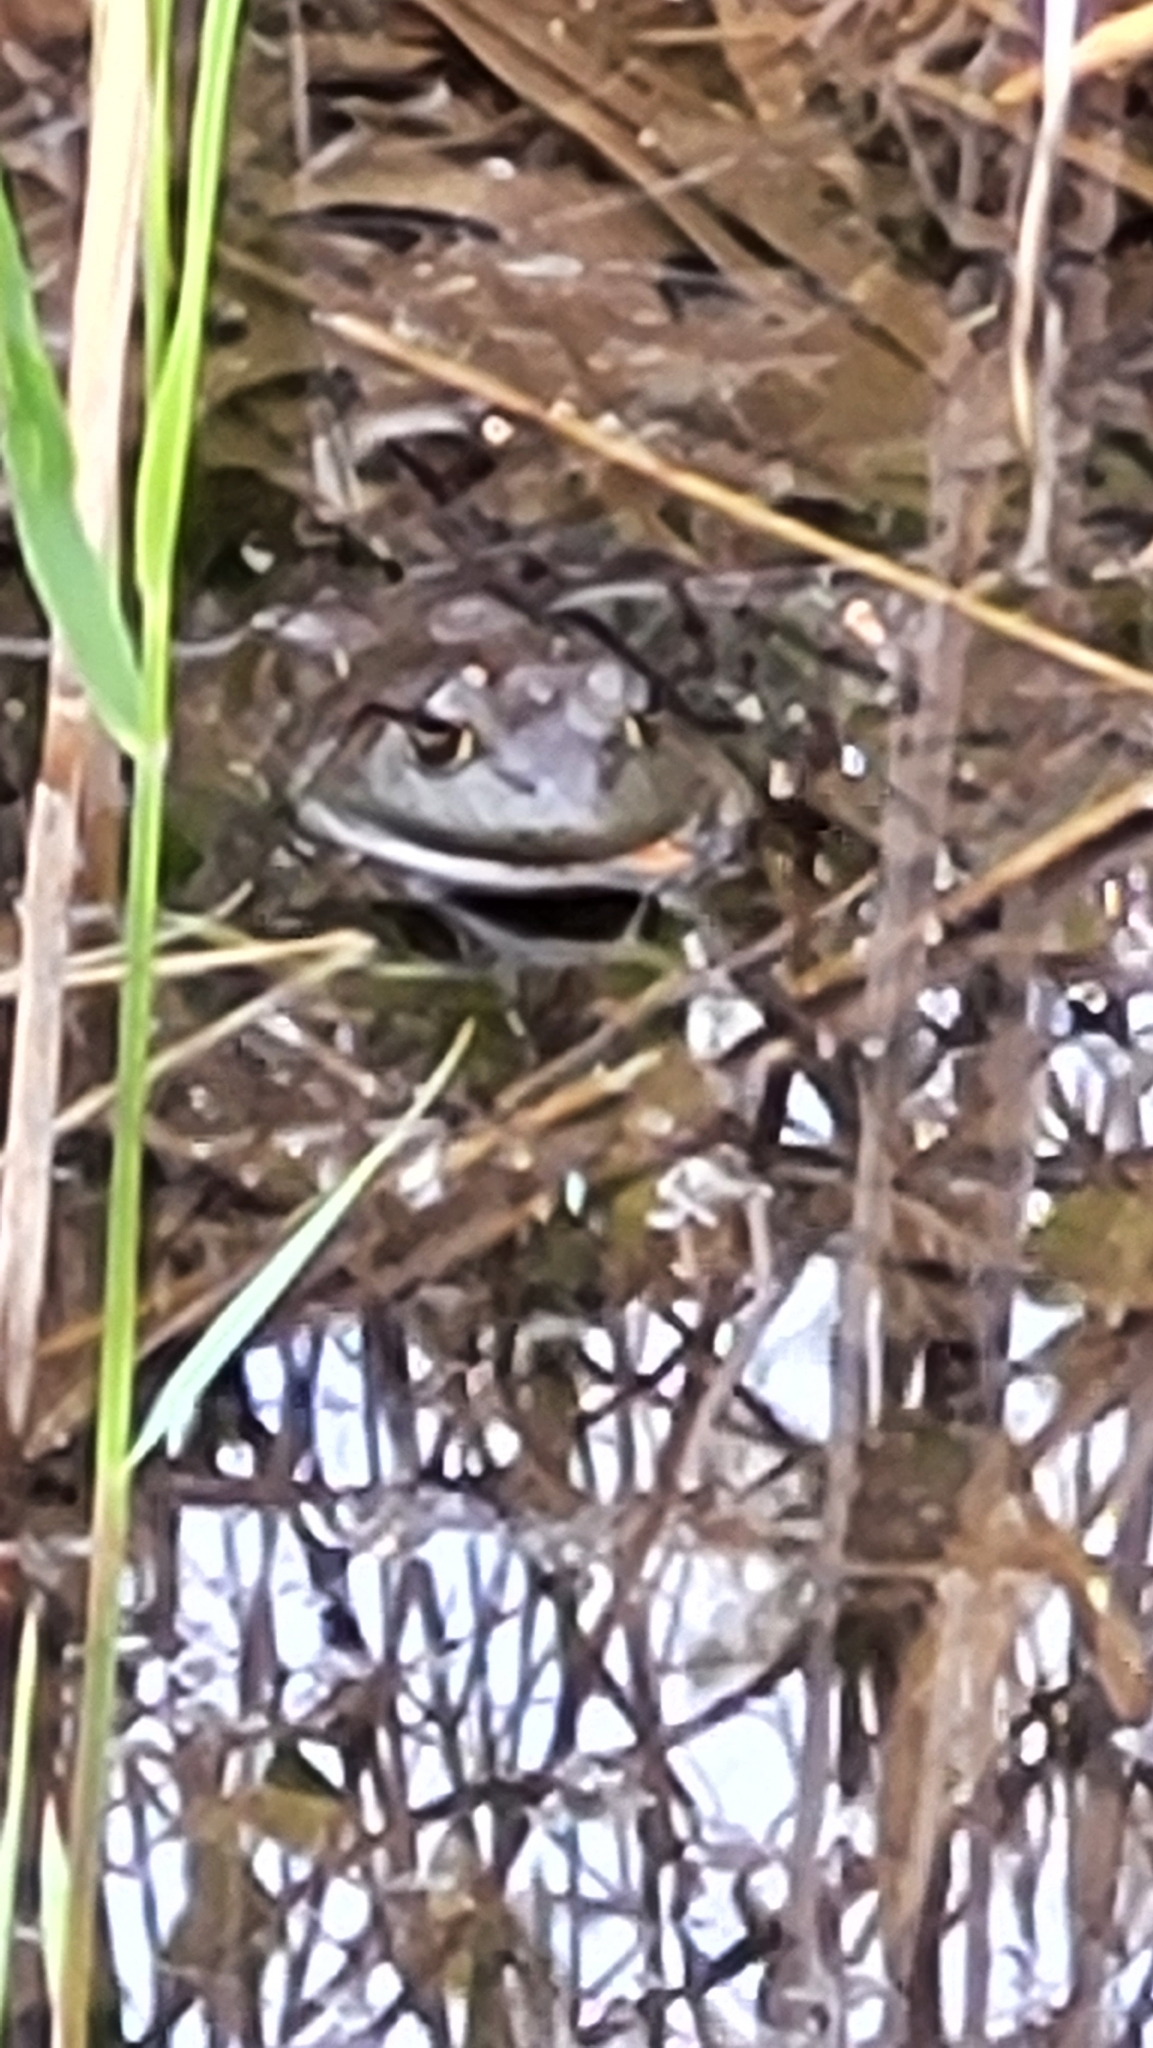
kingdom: Animalia
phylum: Chordata
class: Amphibia
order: Anura
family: Ranidae
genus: Lithobates
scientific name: Lithobates catesbeianus
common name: American bullfrog
